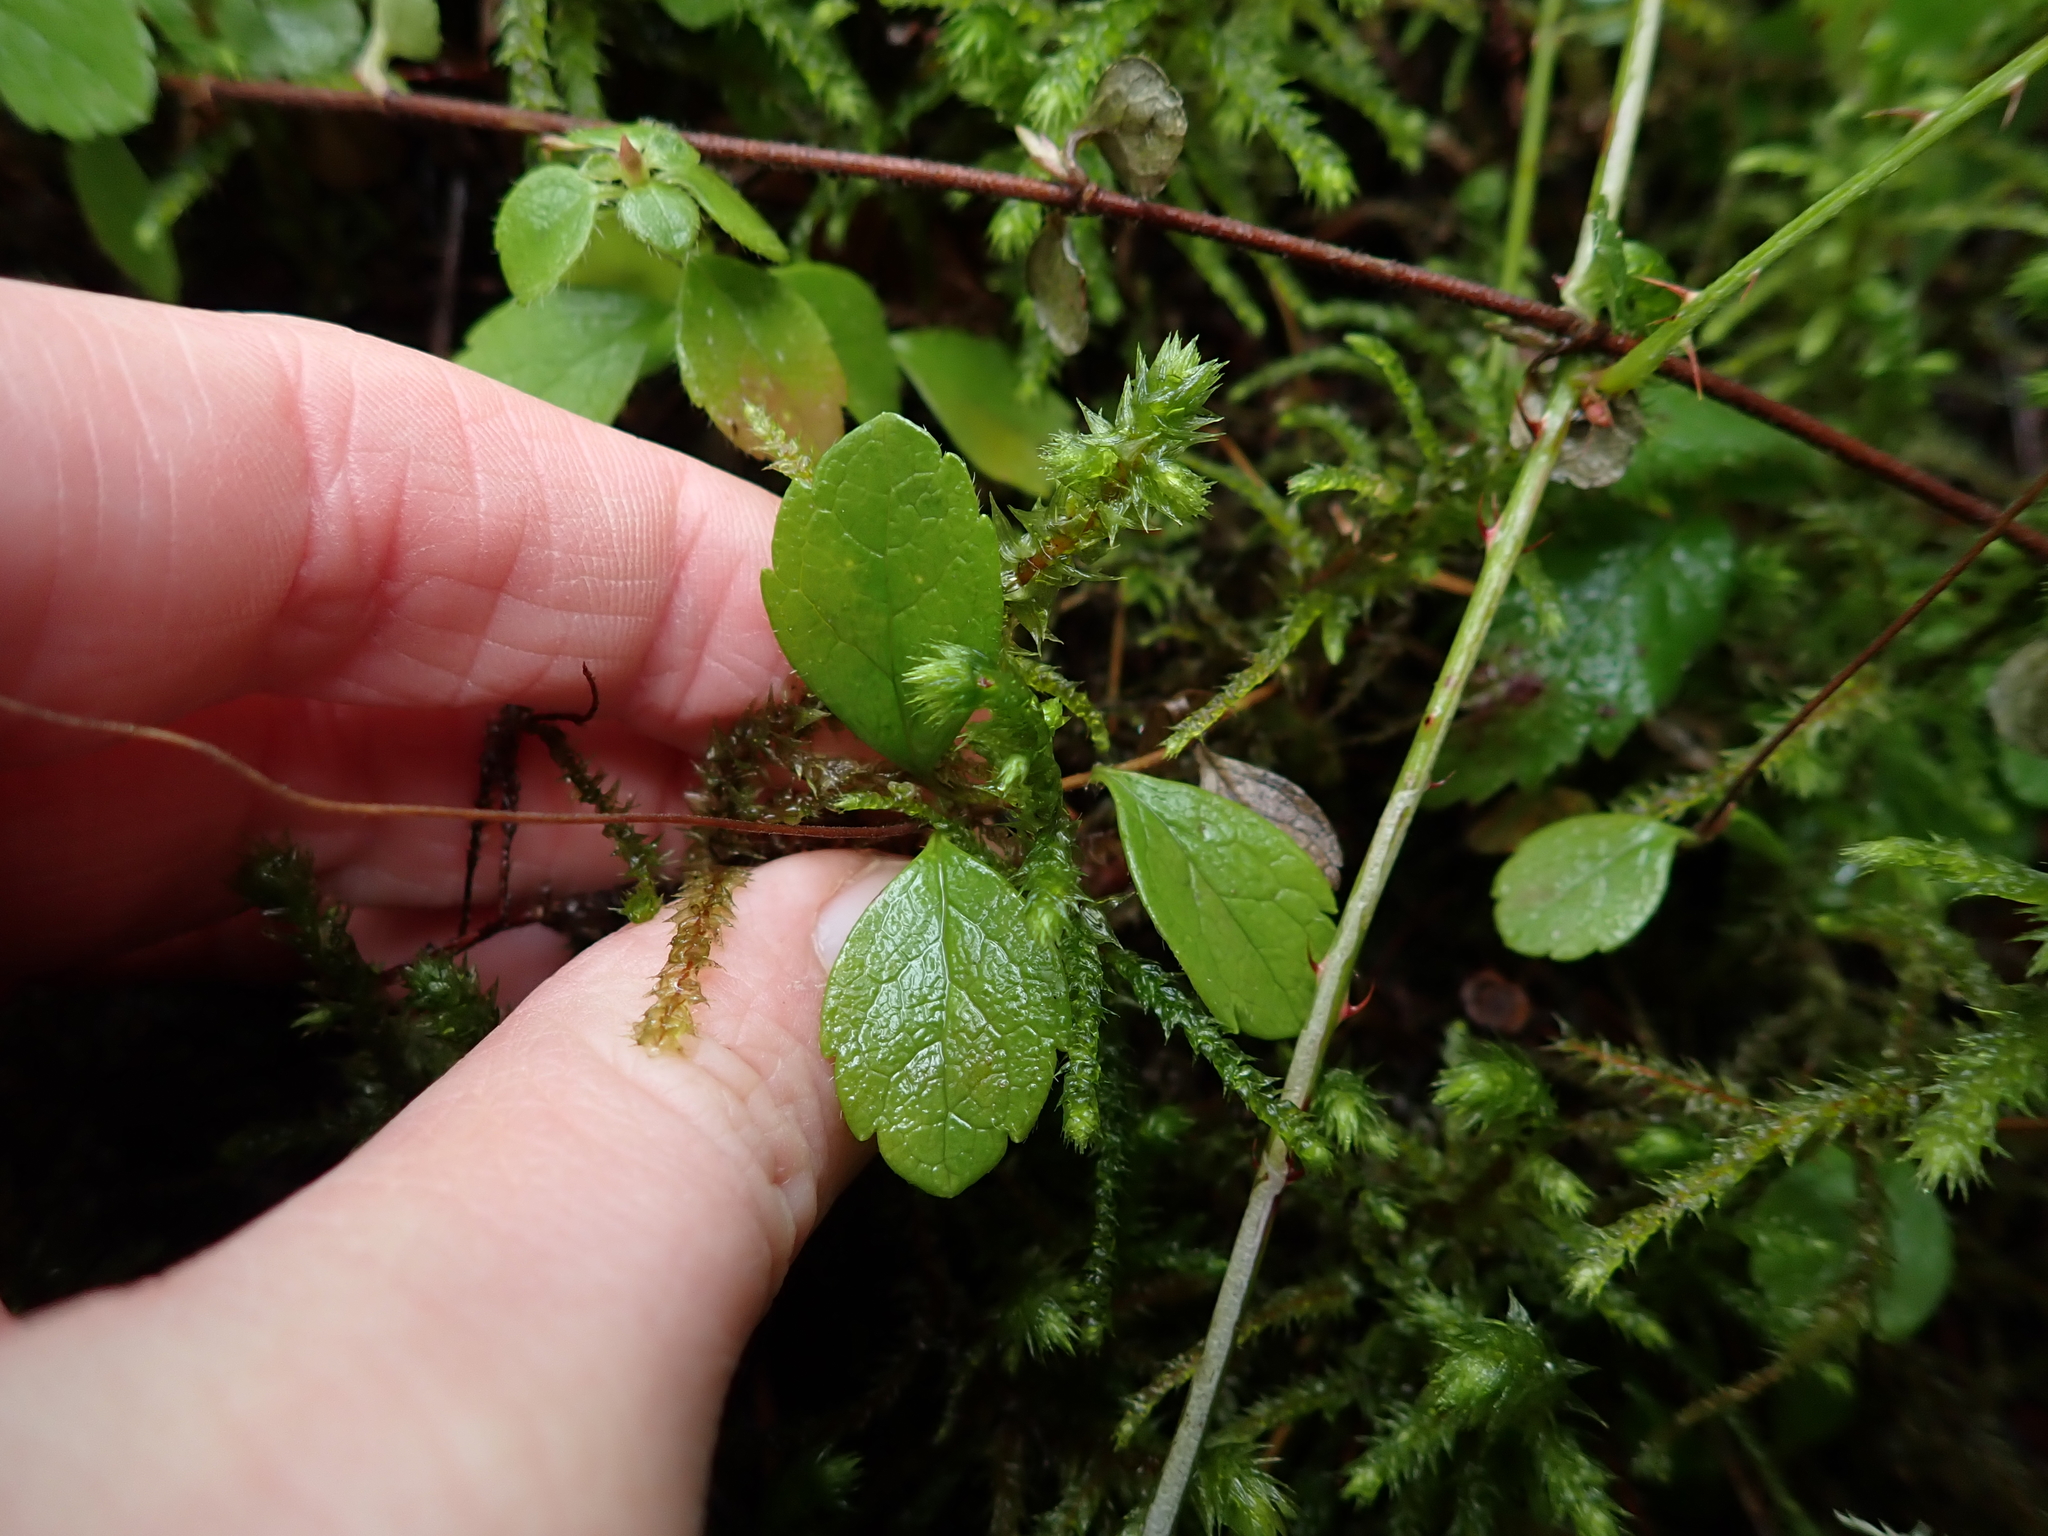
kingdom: Plantae
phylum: Tracheophyta
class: Magnoliopsida
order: Dipsacales
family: Caprifoliaceae
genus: Linnaea
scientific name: Linnaea borealis
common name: Twinflower
